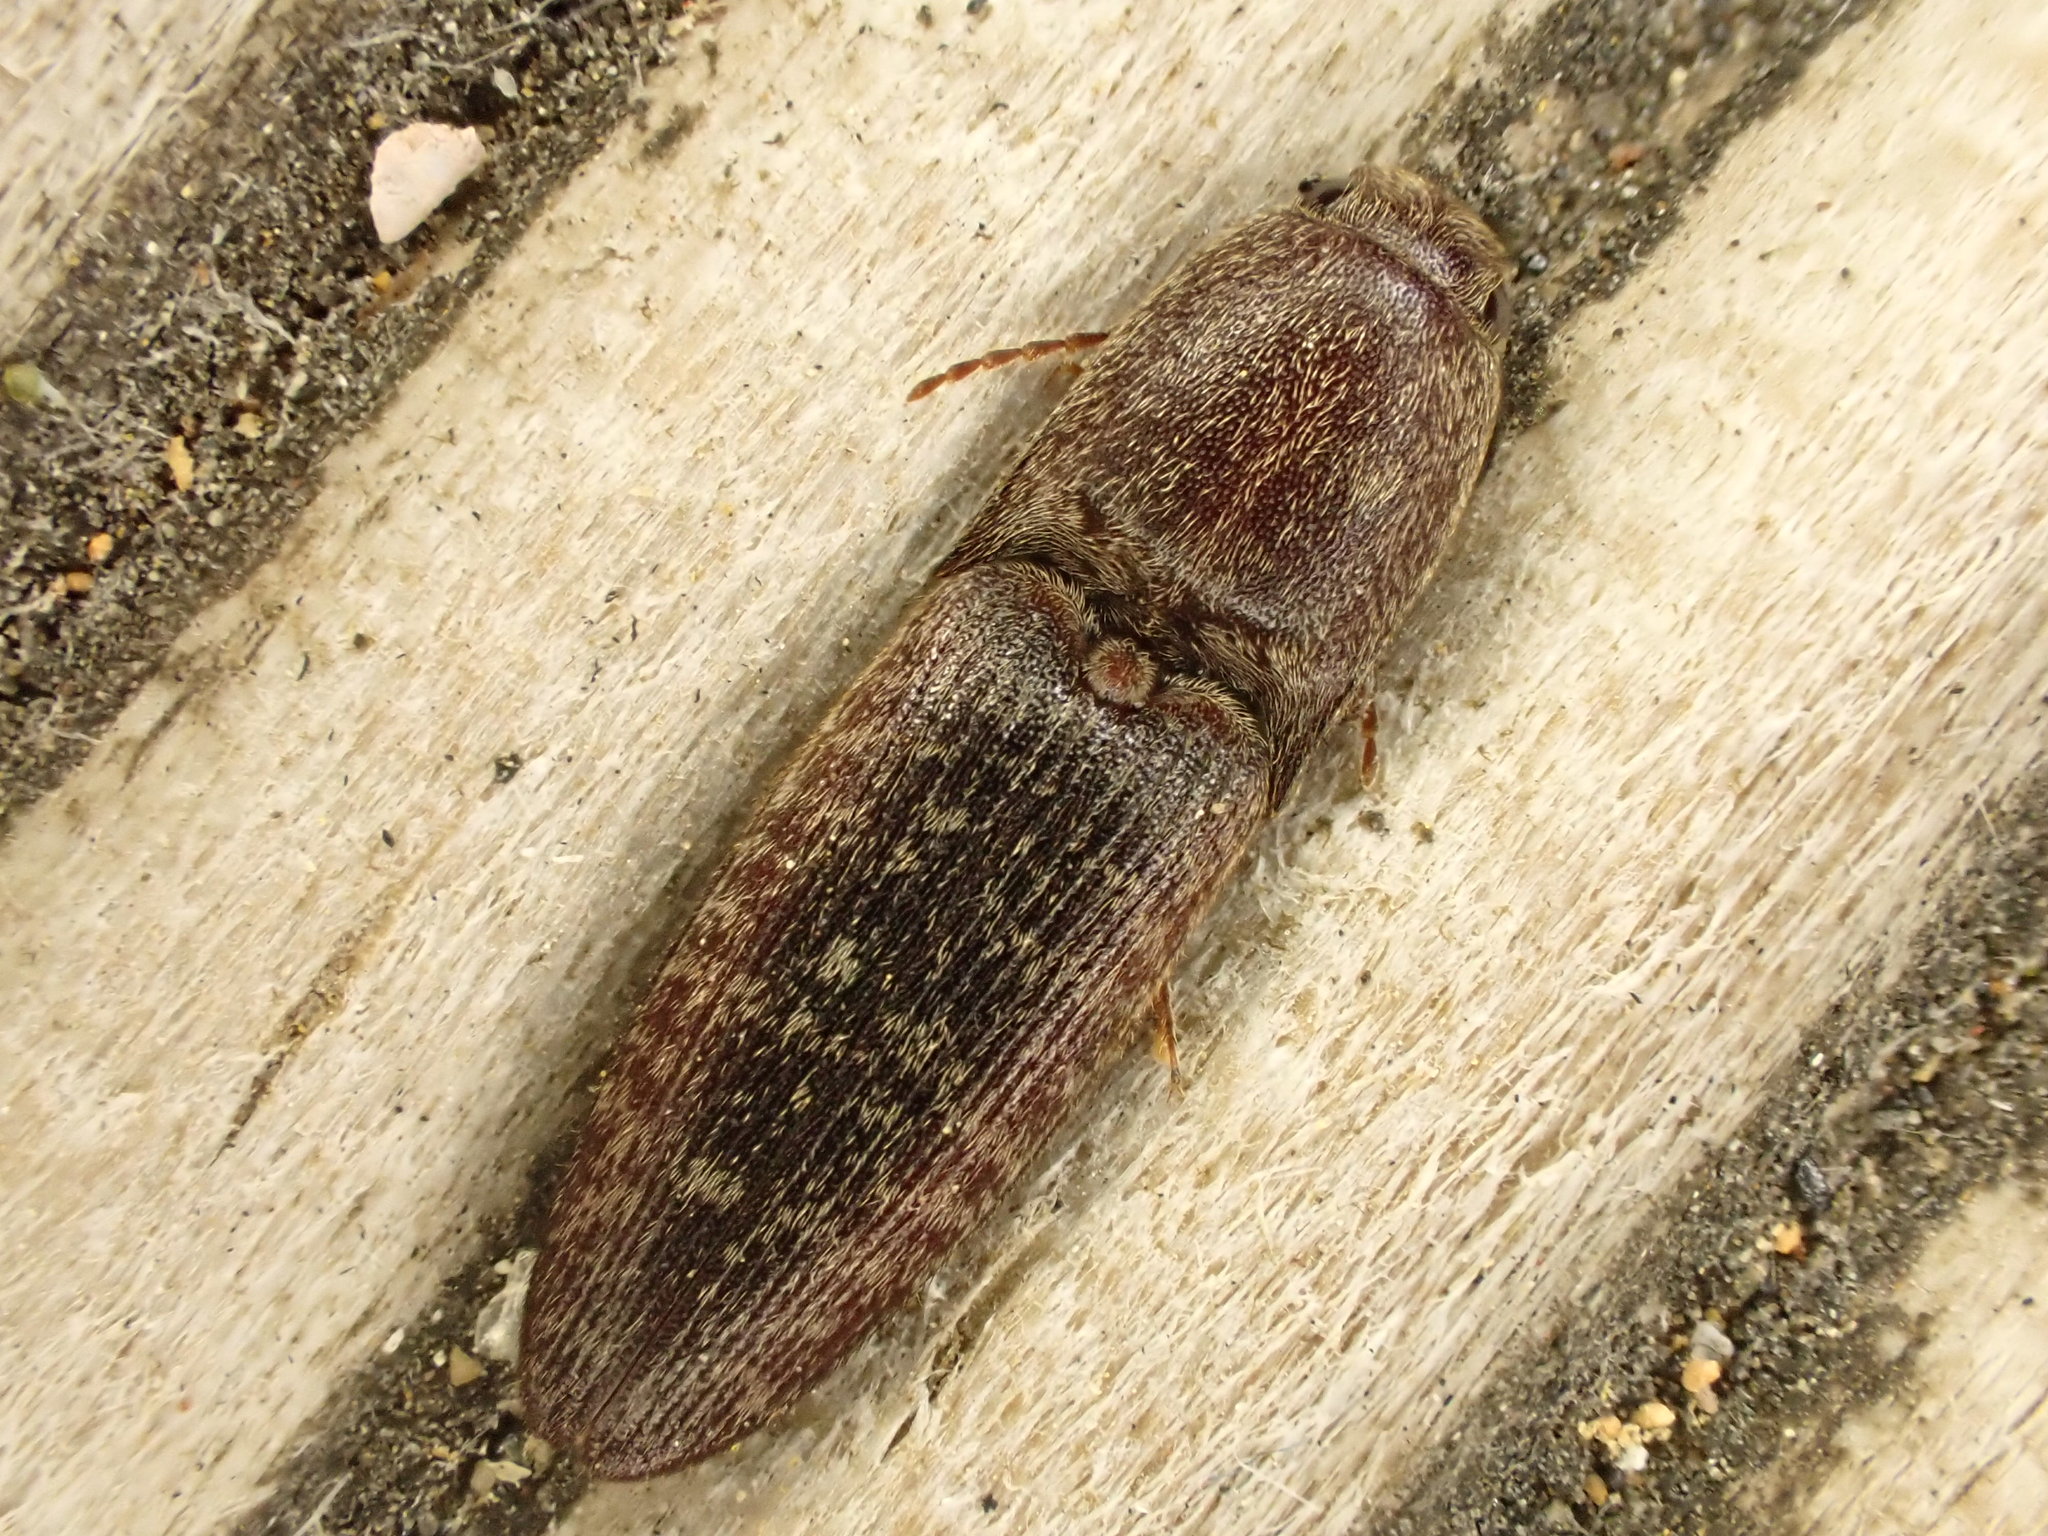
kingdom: Animalia
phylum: Arthropoda
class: Insecta
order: Coleoptera
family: Elateridae
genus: Monocrepidius
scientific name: Monocrepidius
